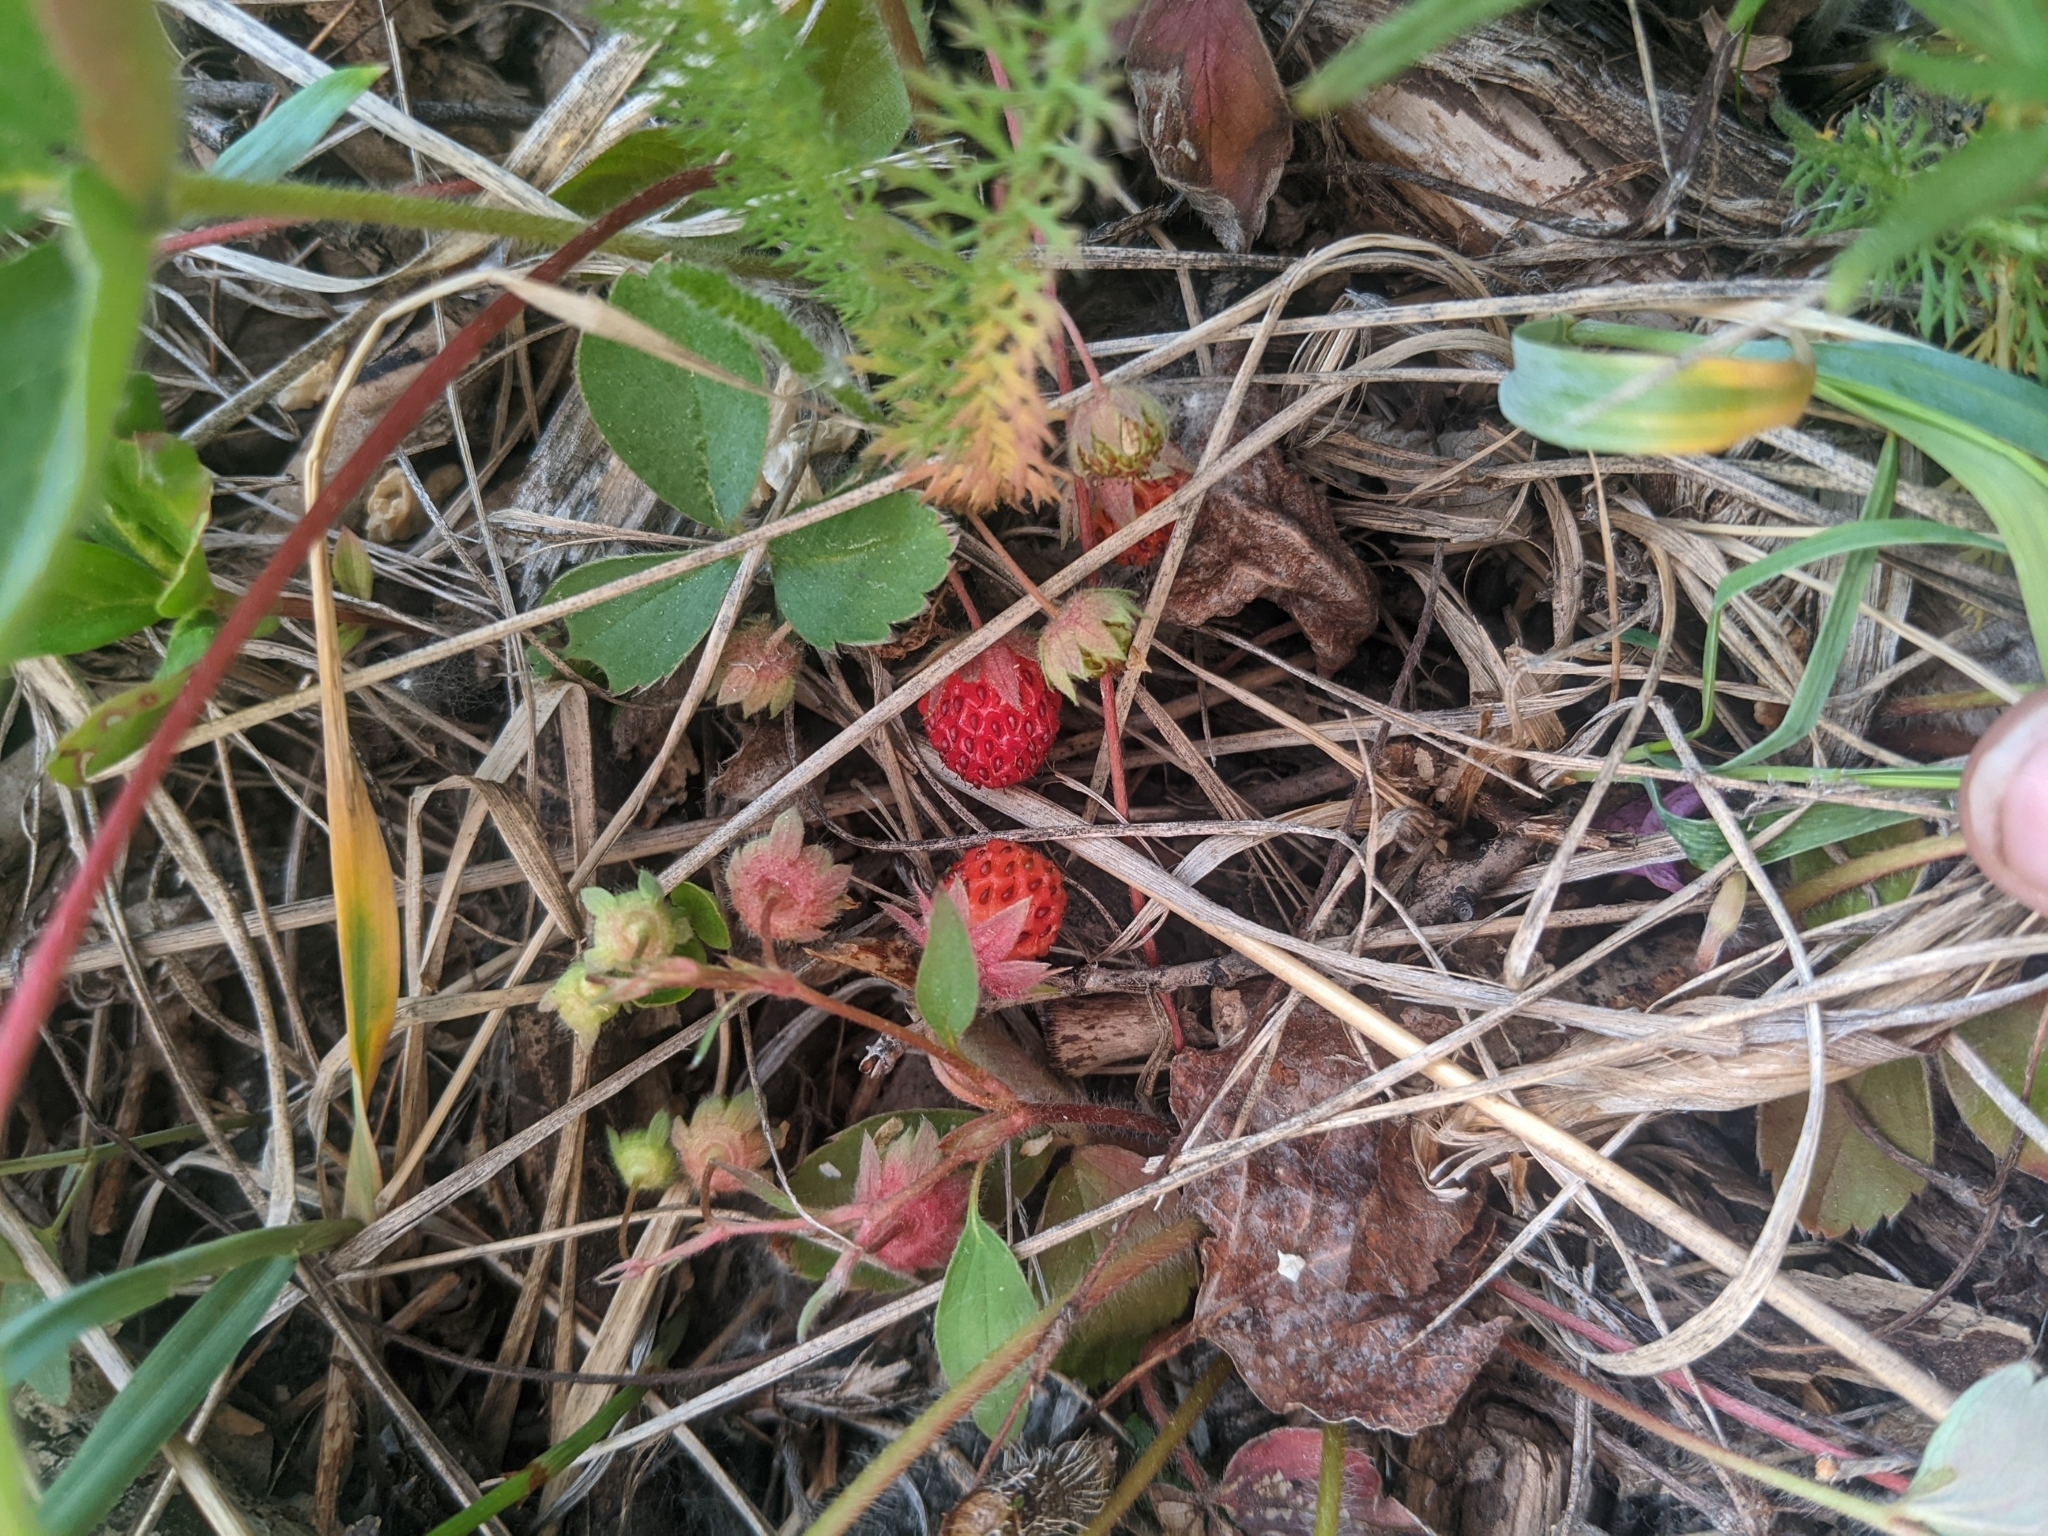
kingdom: Plantae
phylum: Tracheophyta
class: Magnoliopsida
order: Rosales
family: Rosaceae
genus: Fragaria
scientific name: Fragaria virginiana
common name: Thickleaved wild strawberry
